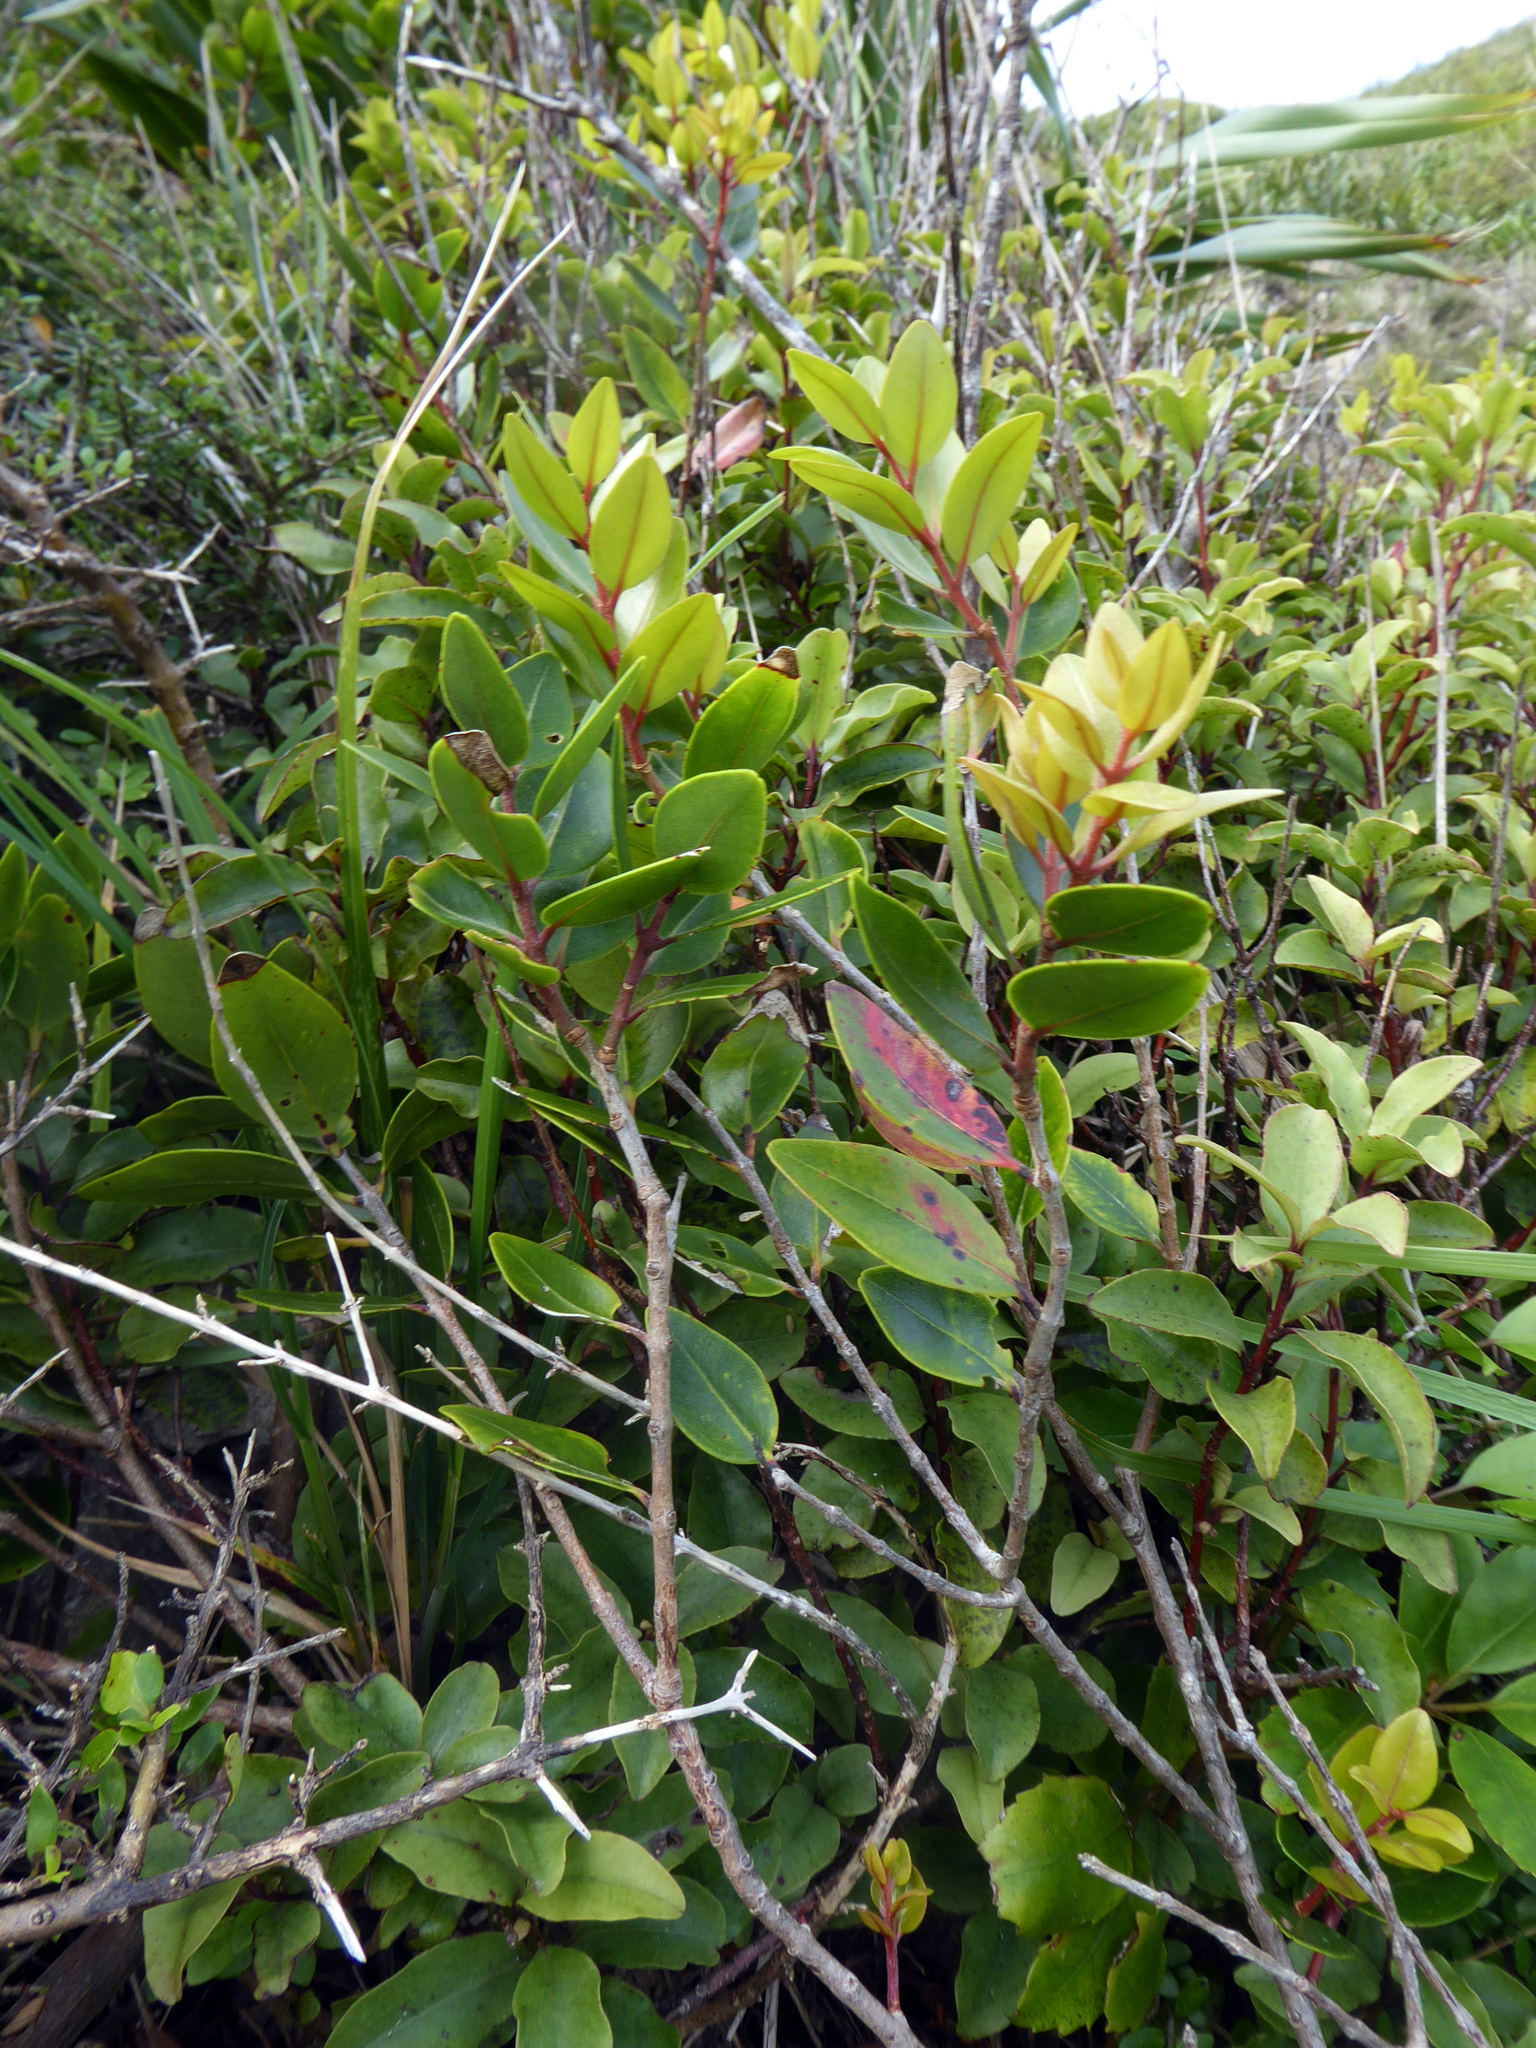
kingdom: Plantae
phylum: Tracheophyta
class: Magnoliopsida
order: Myrtales
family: Myrtaceae
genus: Metrosideros
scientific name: Metrosideros robusta
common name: Northern rata
